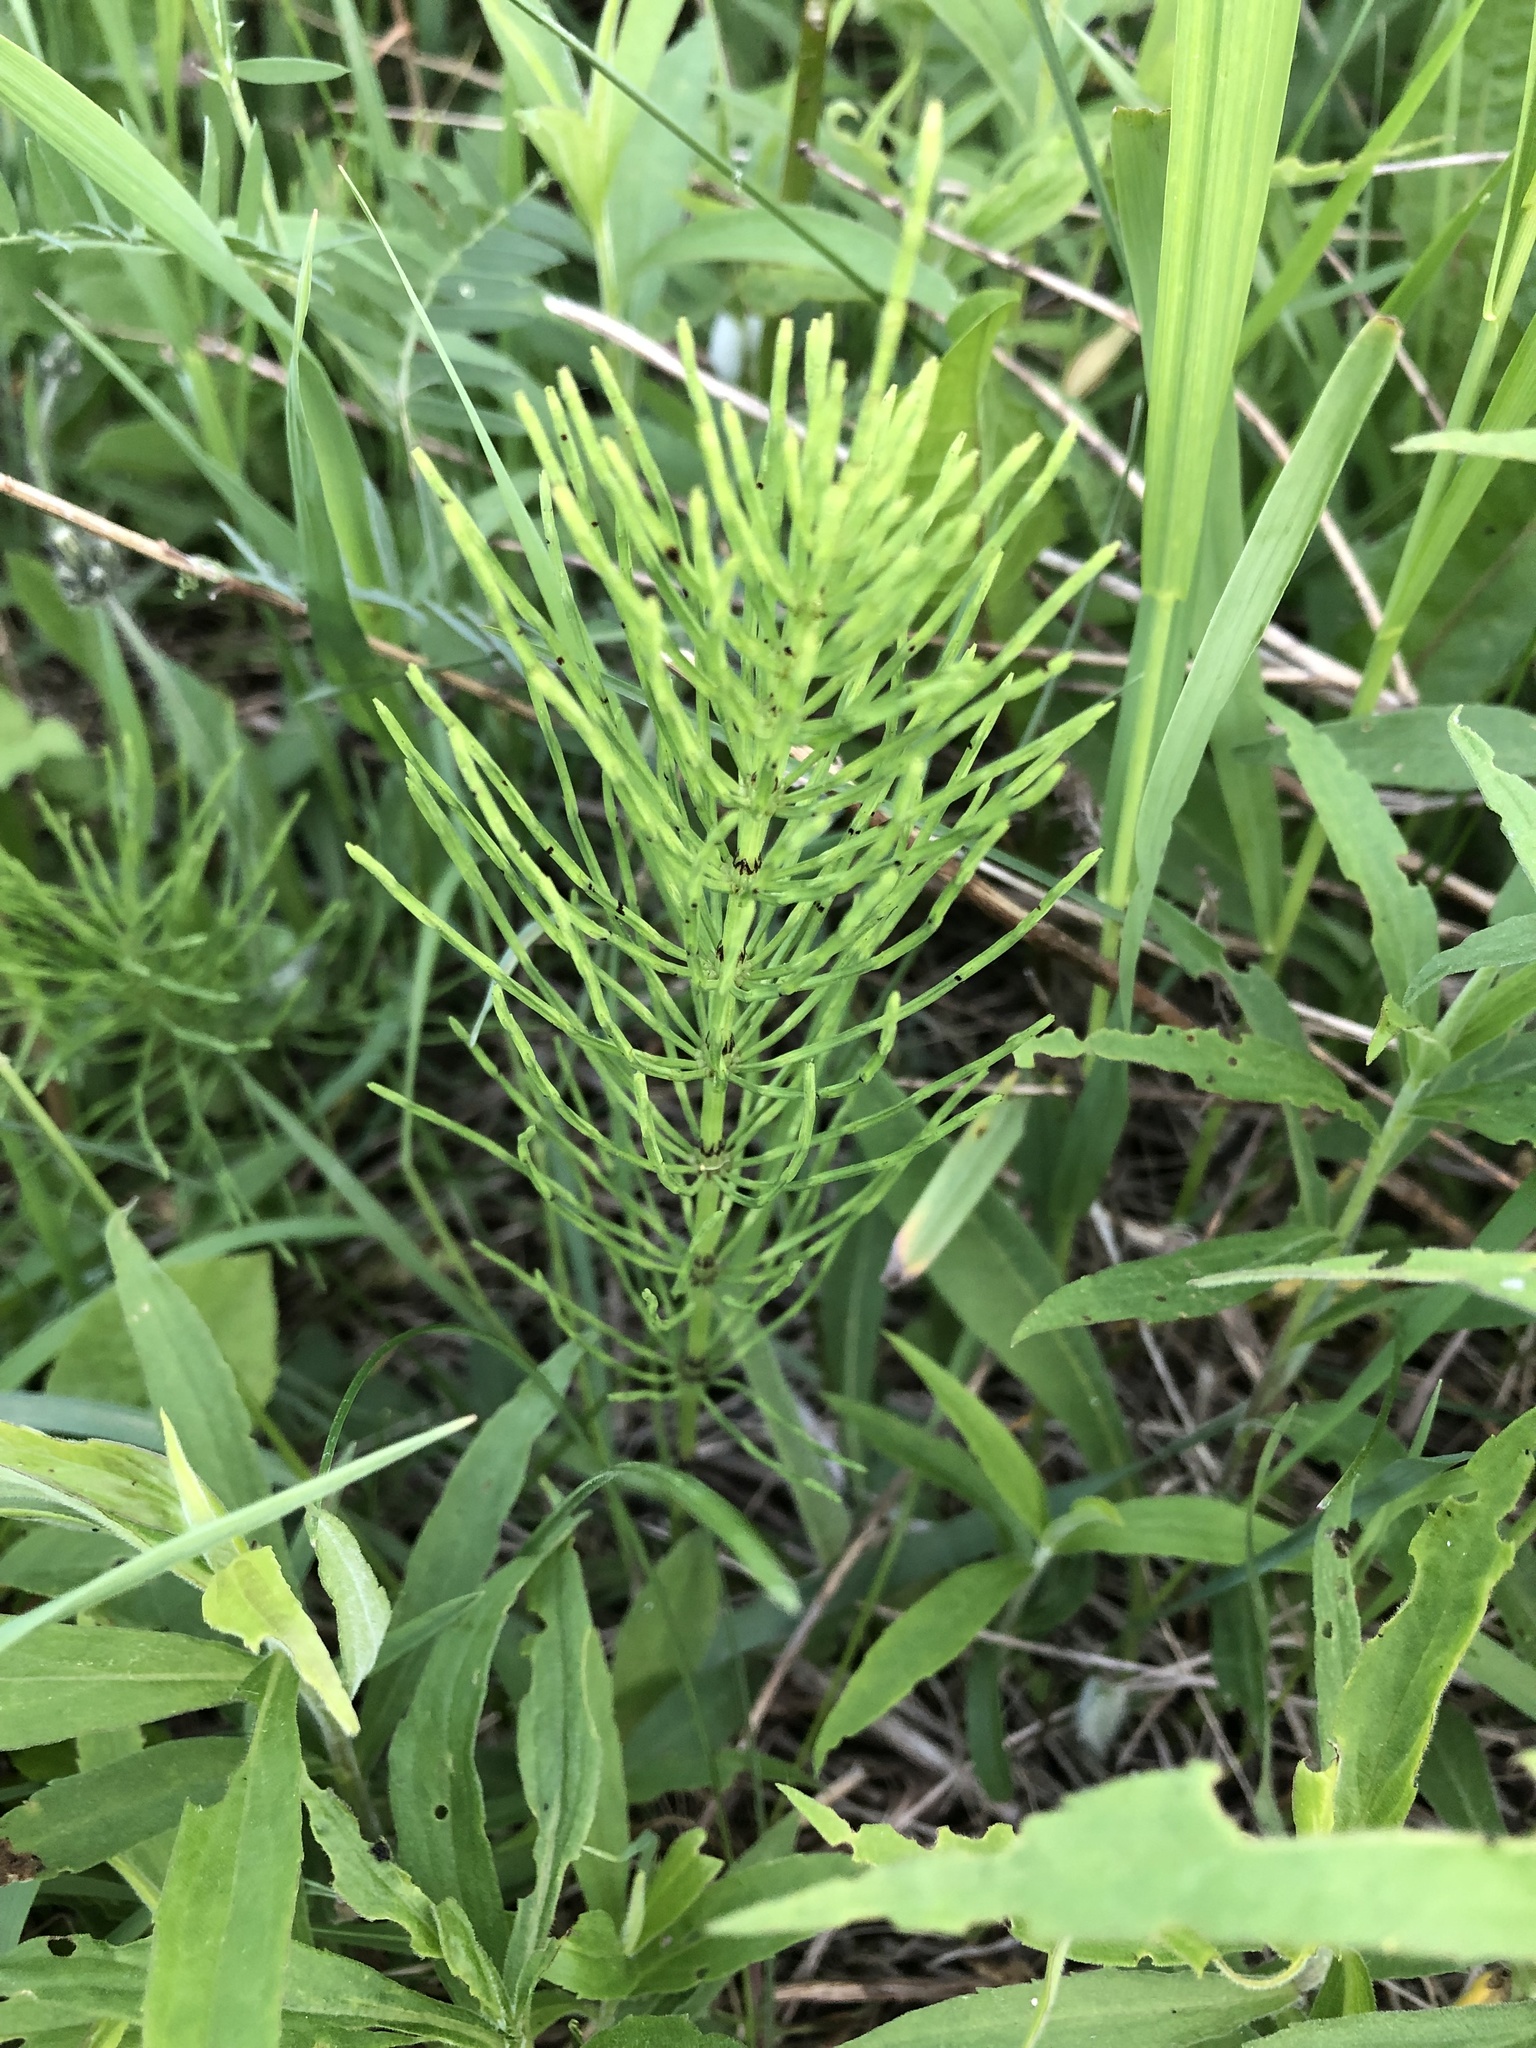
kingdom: Plantae
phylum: Tracheophyta
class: Polypodiopsida
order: Equisetales
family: Equisetaceae
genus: Equisetum
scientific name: Equisetum arvense
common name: Field horsetail
